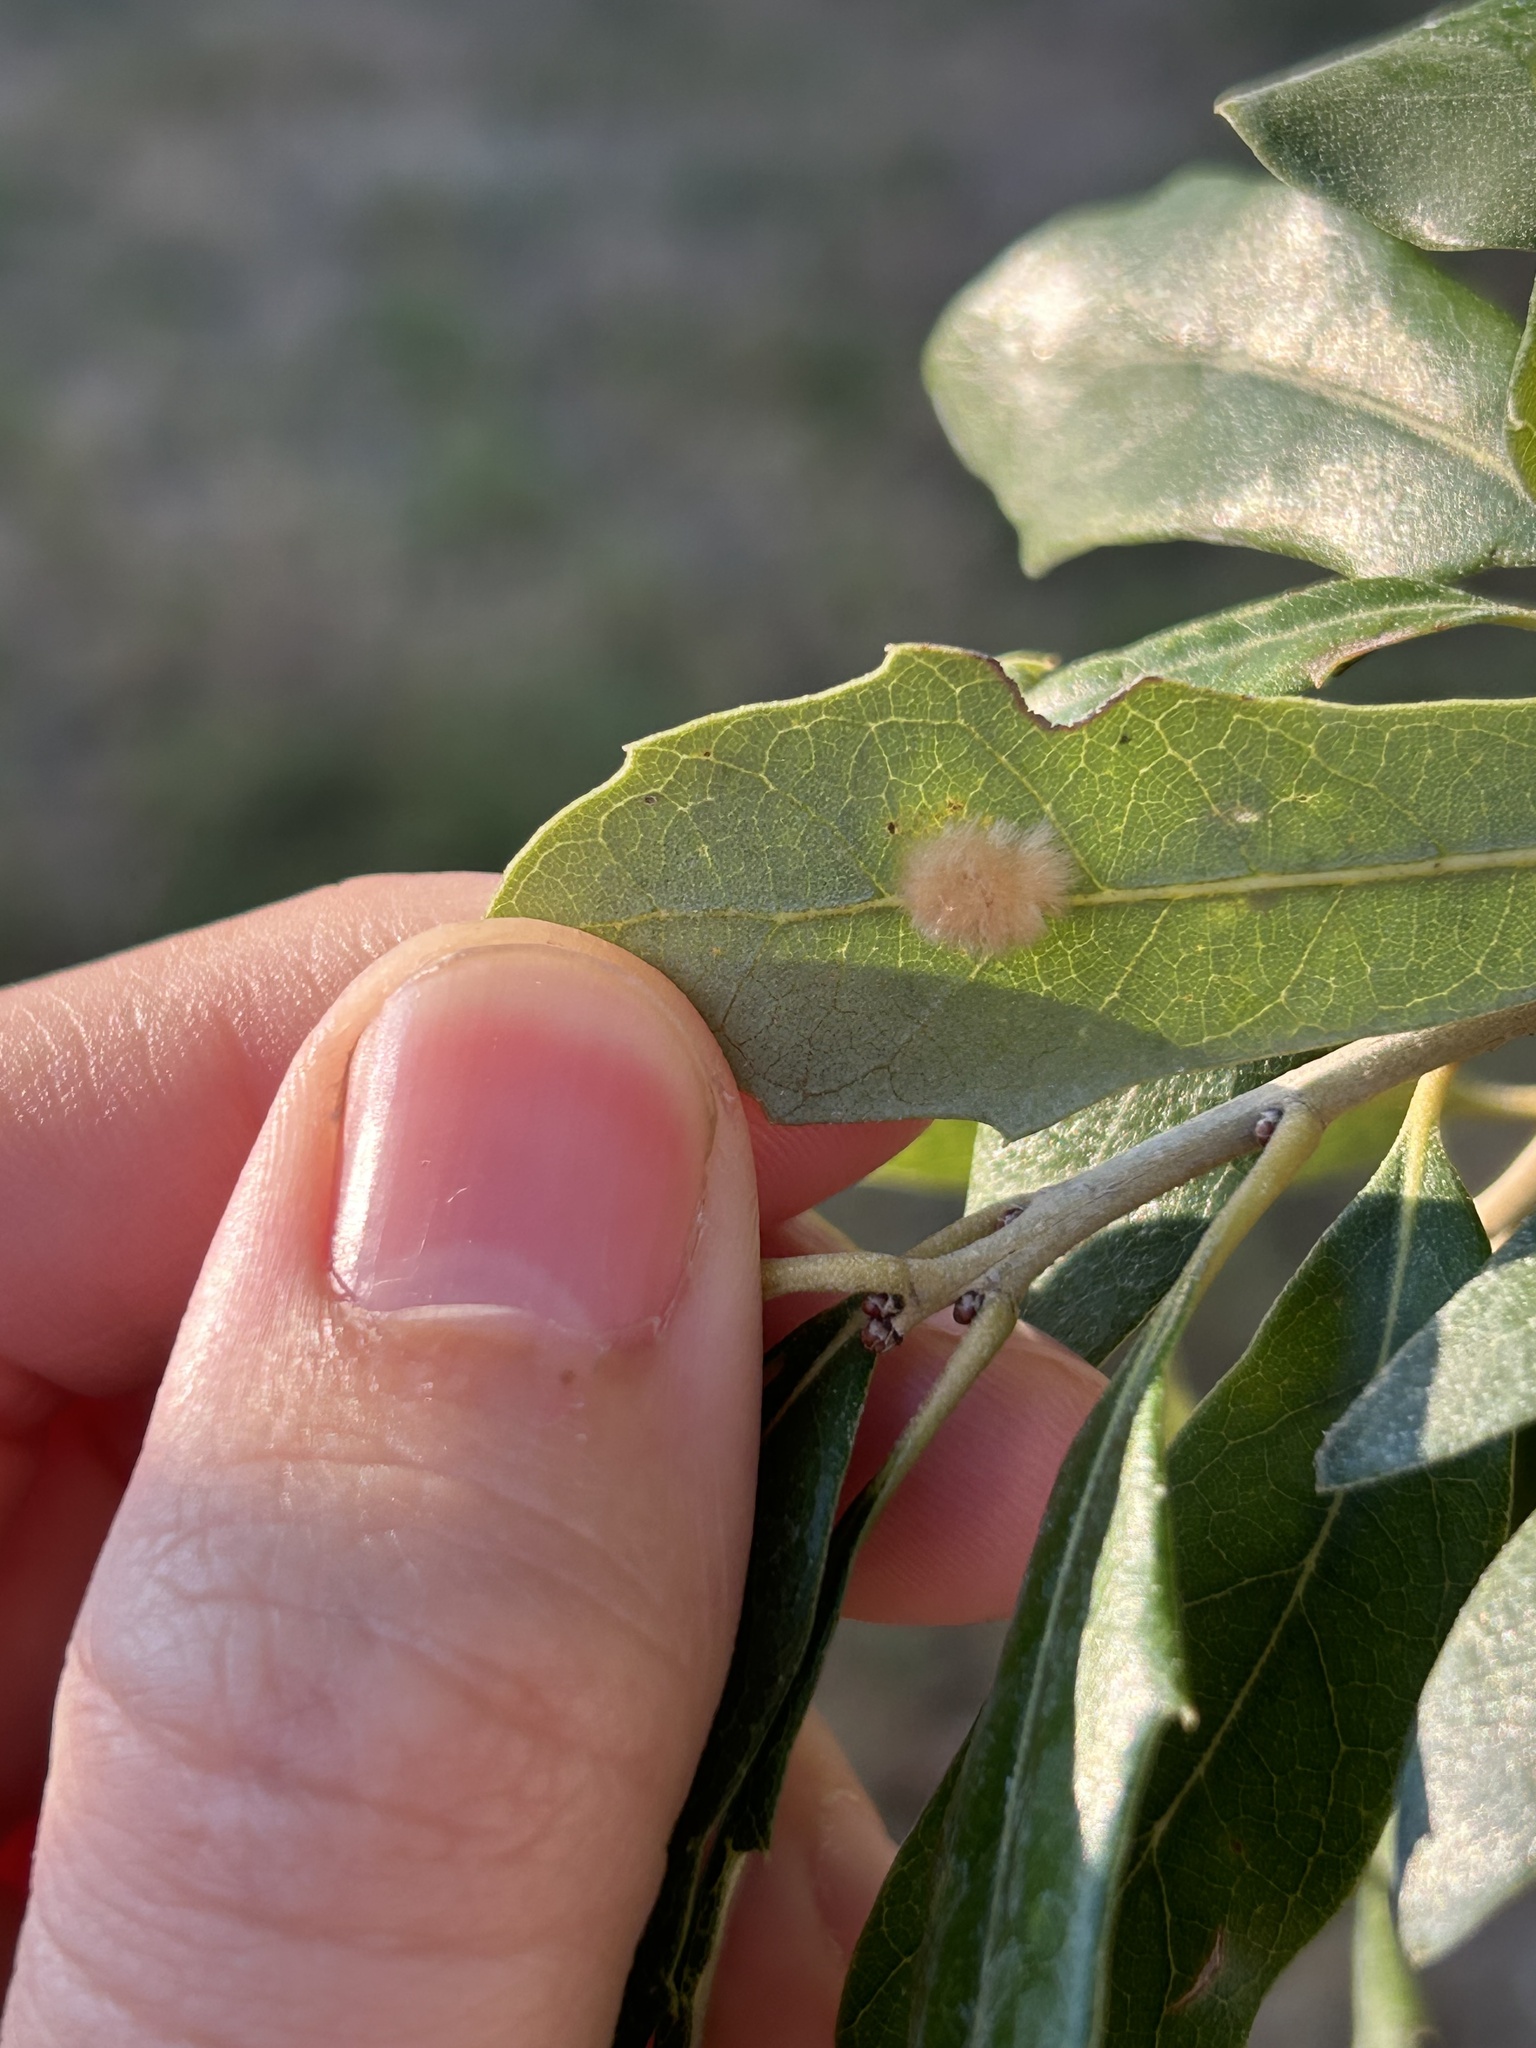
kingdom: Animalia
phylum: Arthropoda
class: Insecta
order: Hymenoptera
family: Cynipidae
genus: Andricus
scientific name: Andricus Druon quercuslanigerum
